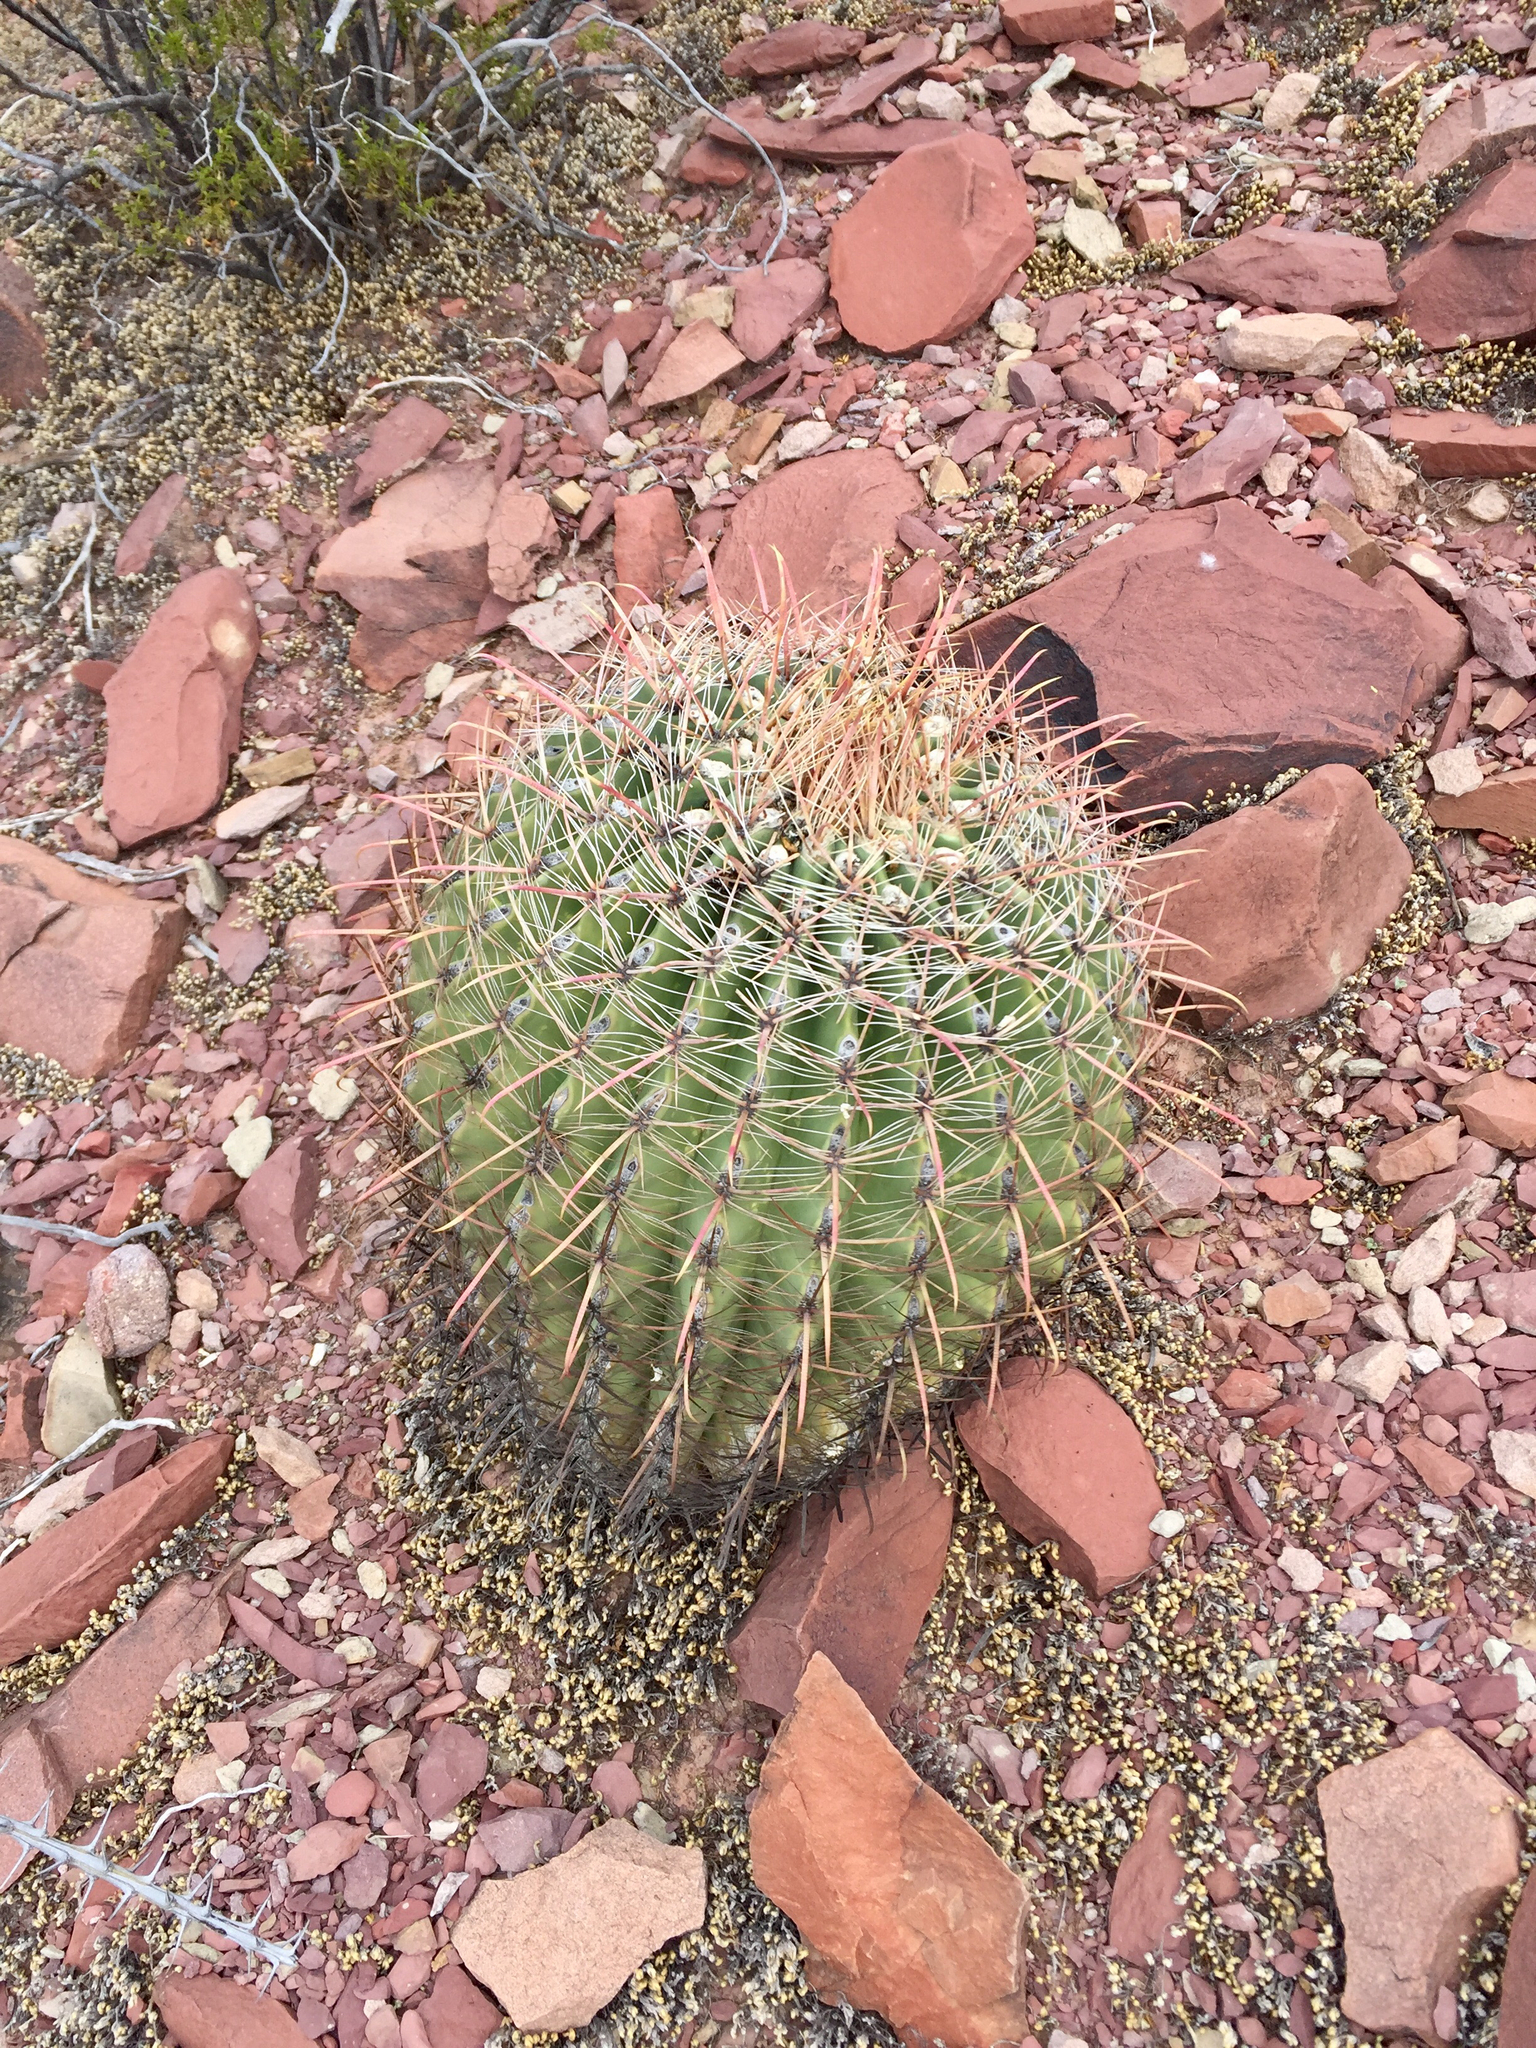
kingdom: Plantae
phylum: Tracheophyta
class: Magnoliopsida
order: Caryophyllales
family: Cactaceae
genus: Ferocactus
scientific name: Ferocactus wislizeni
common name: Candy barrel cactus
